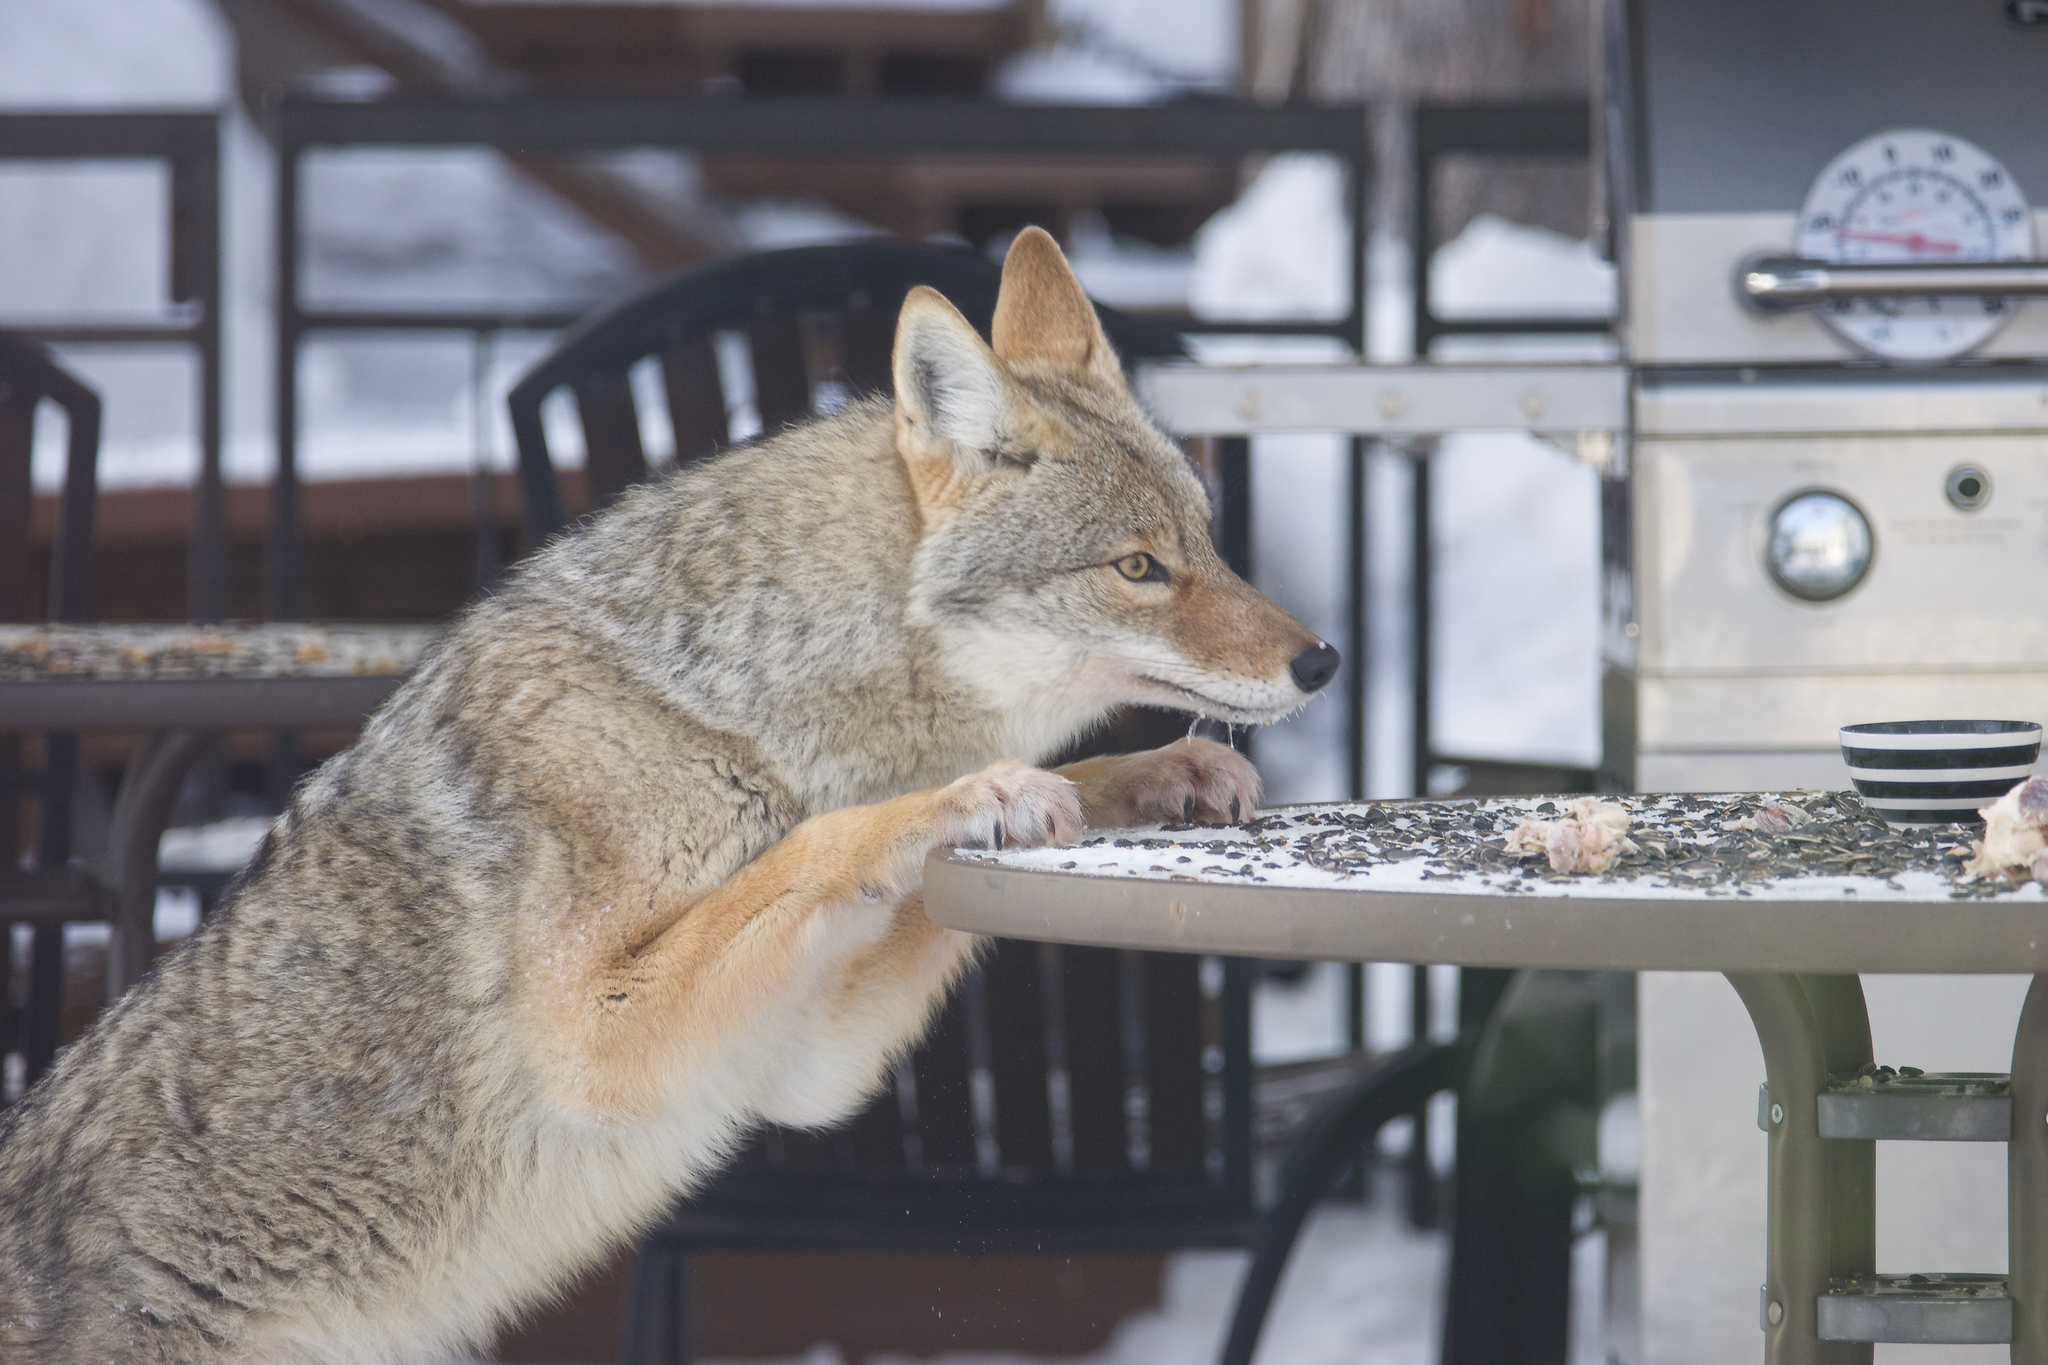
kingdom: Animalia
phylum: Chordata
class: Mammalia
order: Carnivora
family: Canidae
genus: Canis
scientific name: Canis latrans
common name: Coyote
